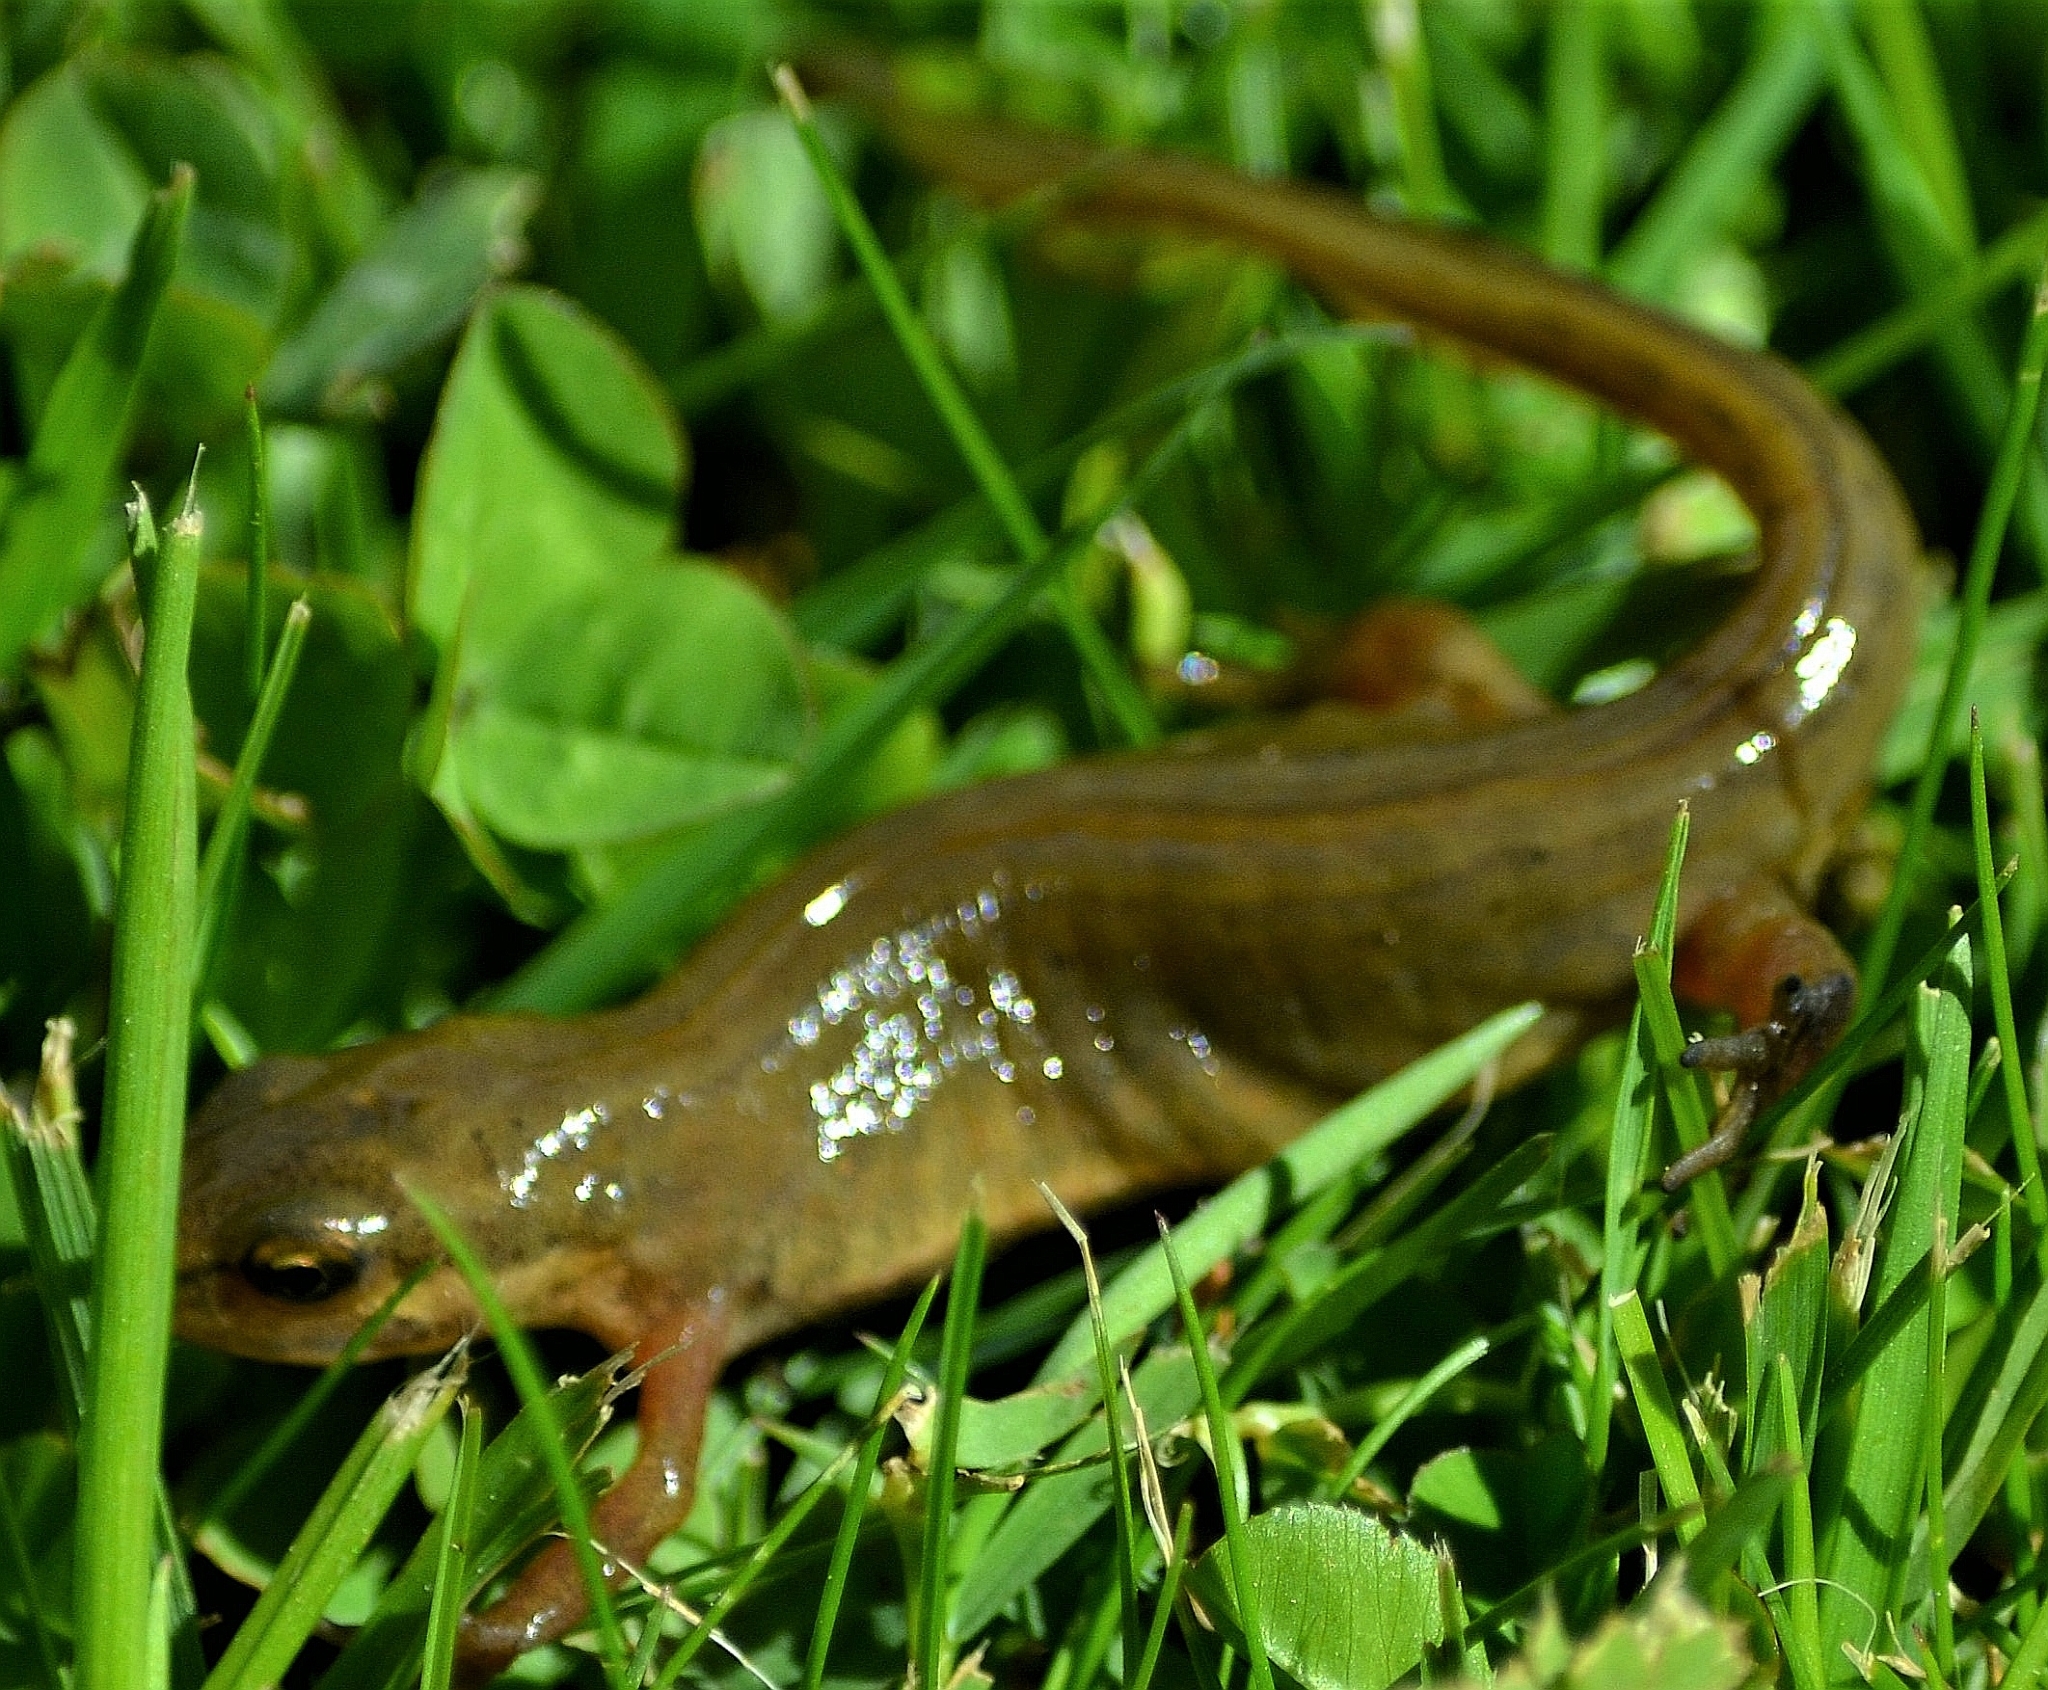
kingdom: Animalia
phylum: Chordata
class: Amphibia
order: Caudata
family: Salamandridae
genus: Lissotriton
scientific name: Lissotriton vulgaris
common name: Smooth newt
